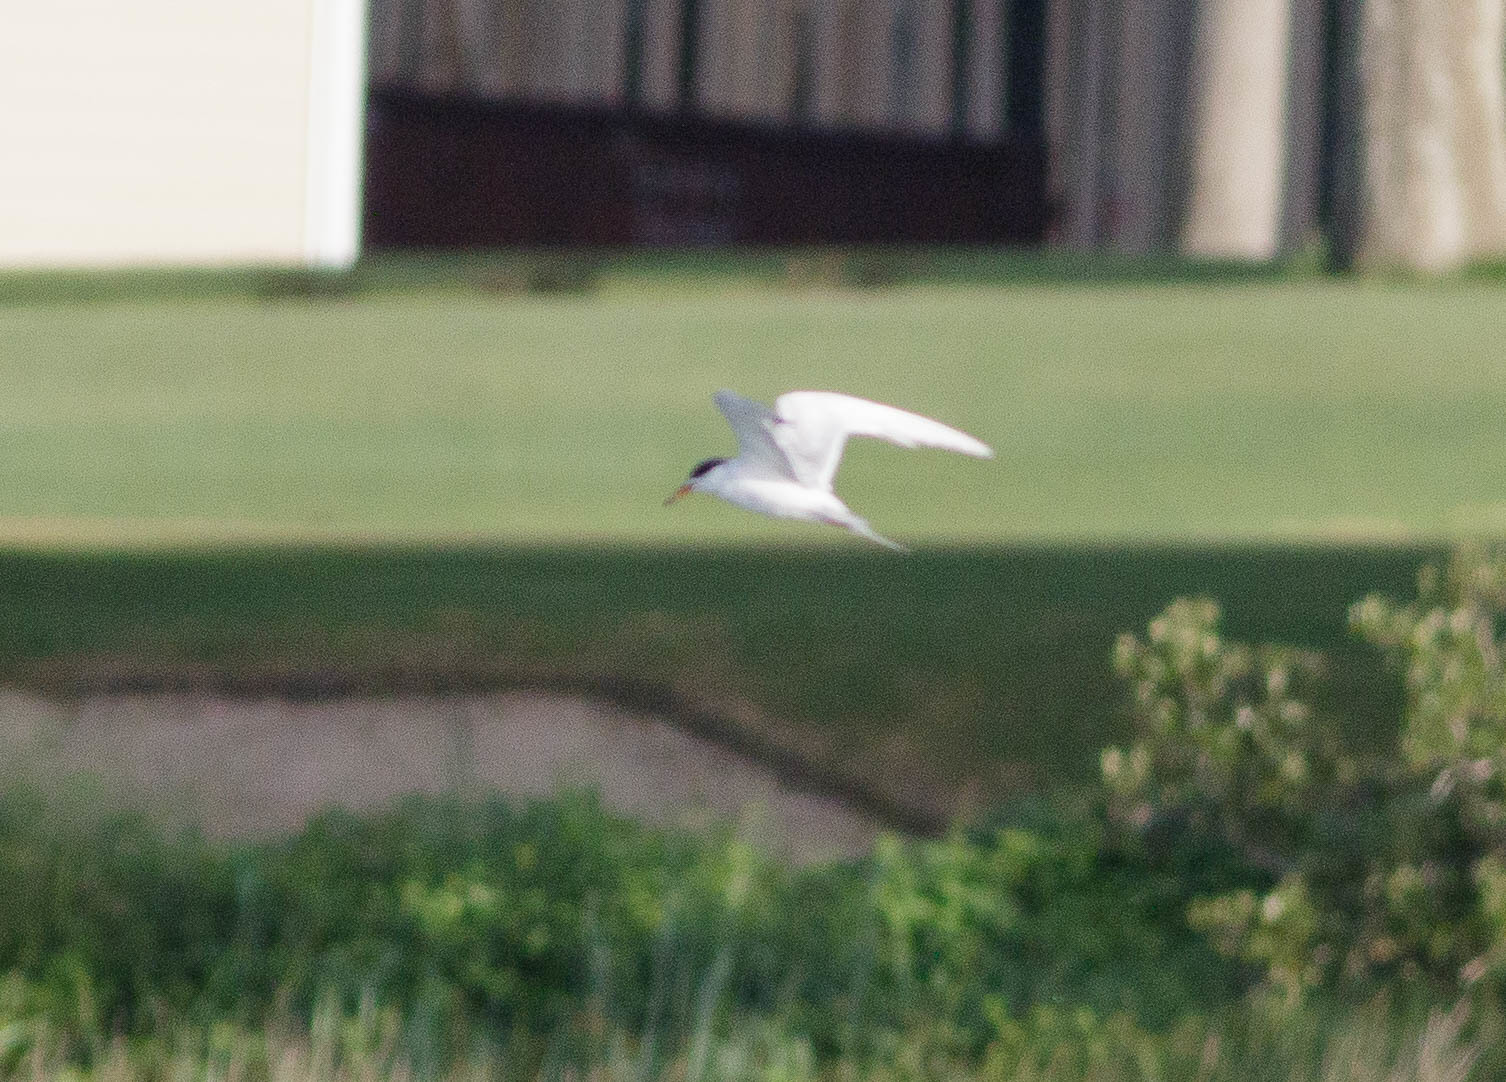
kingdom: Animalia
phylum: Chordata
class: Aves
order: Charadriiformes
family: Laridae
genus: Hydroprogne
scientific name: Hydroprogne caspia
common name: Caspian tern
